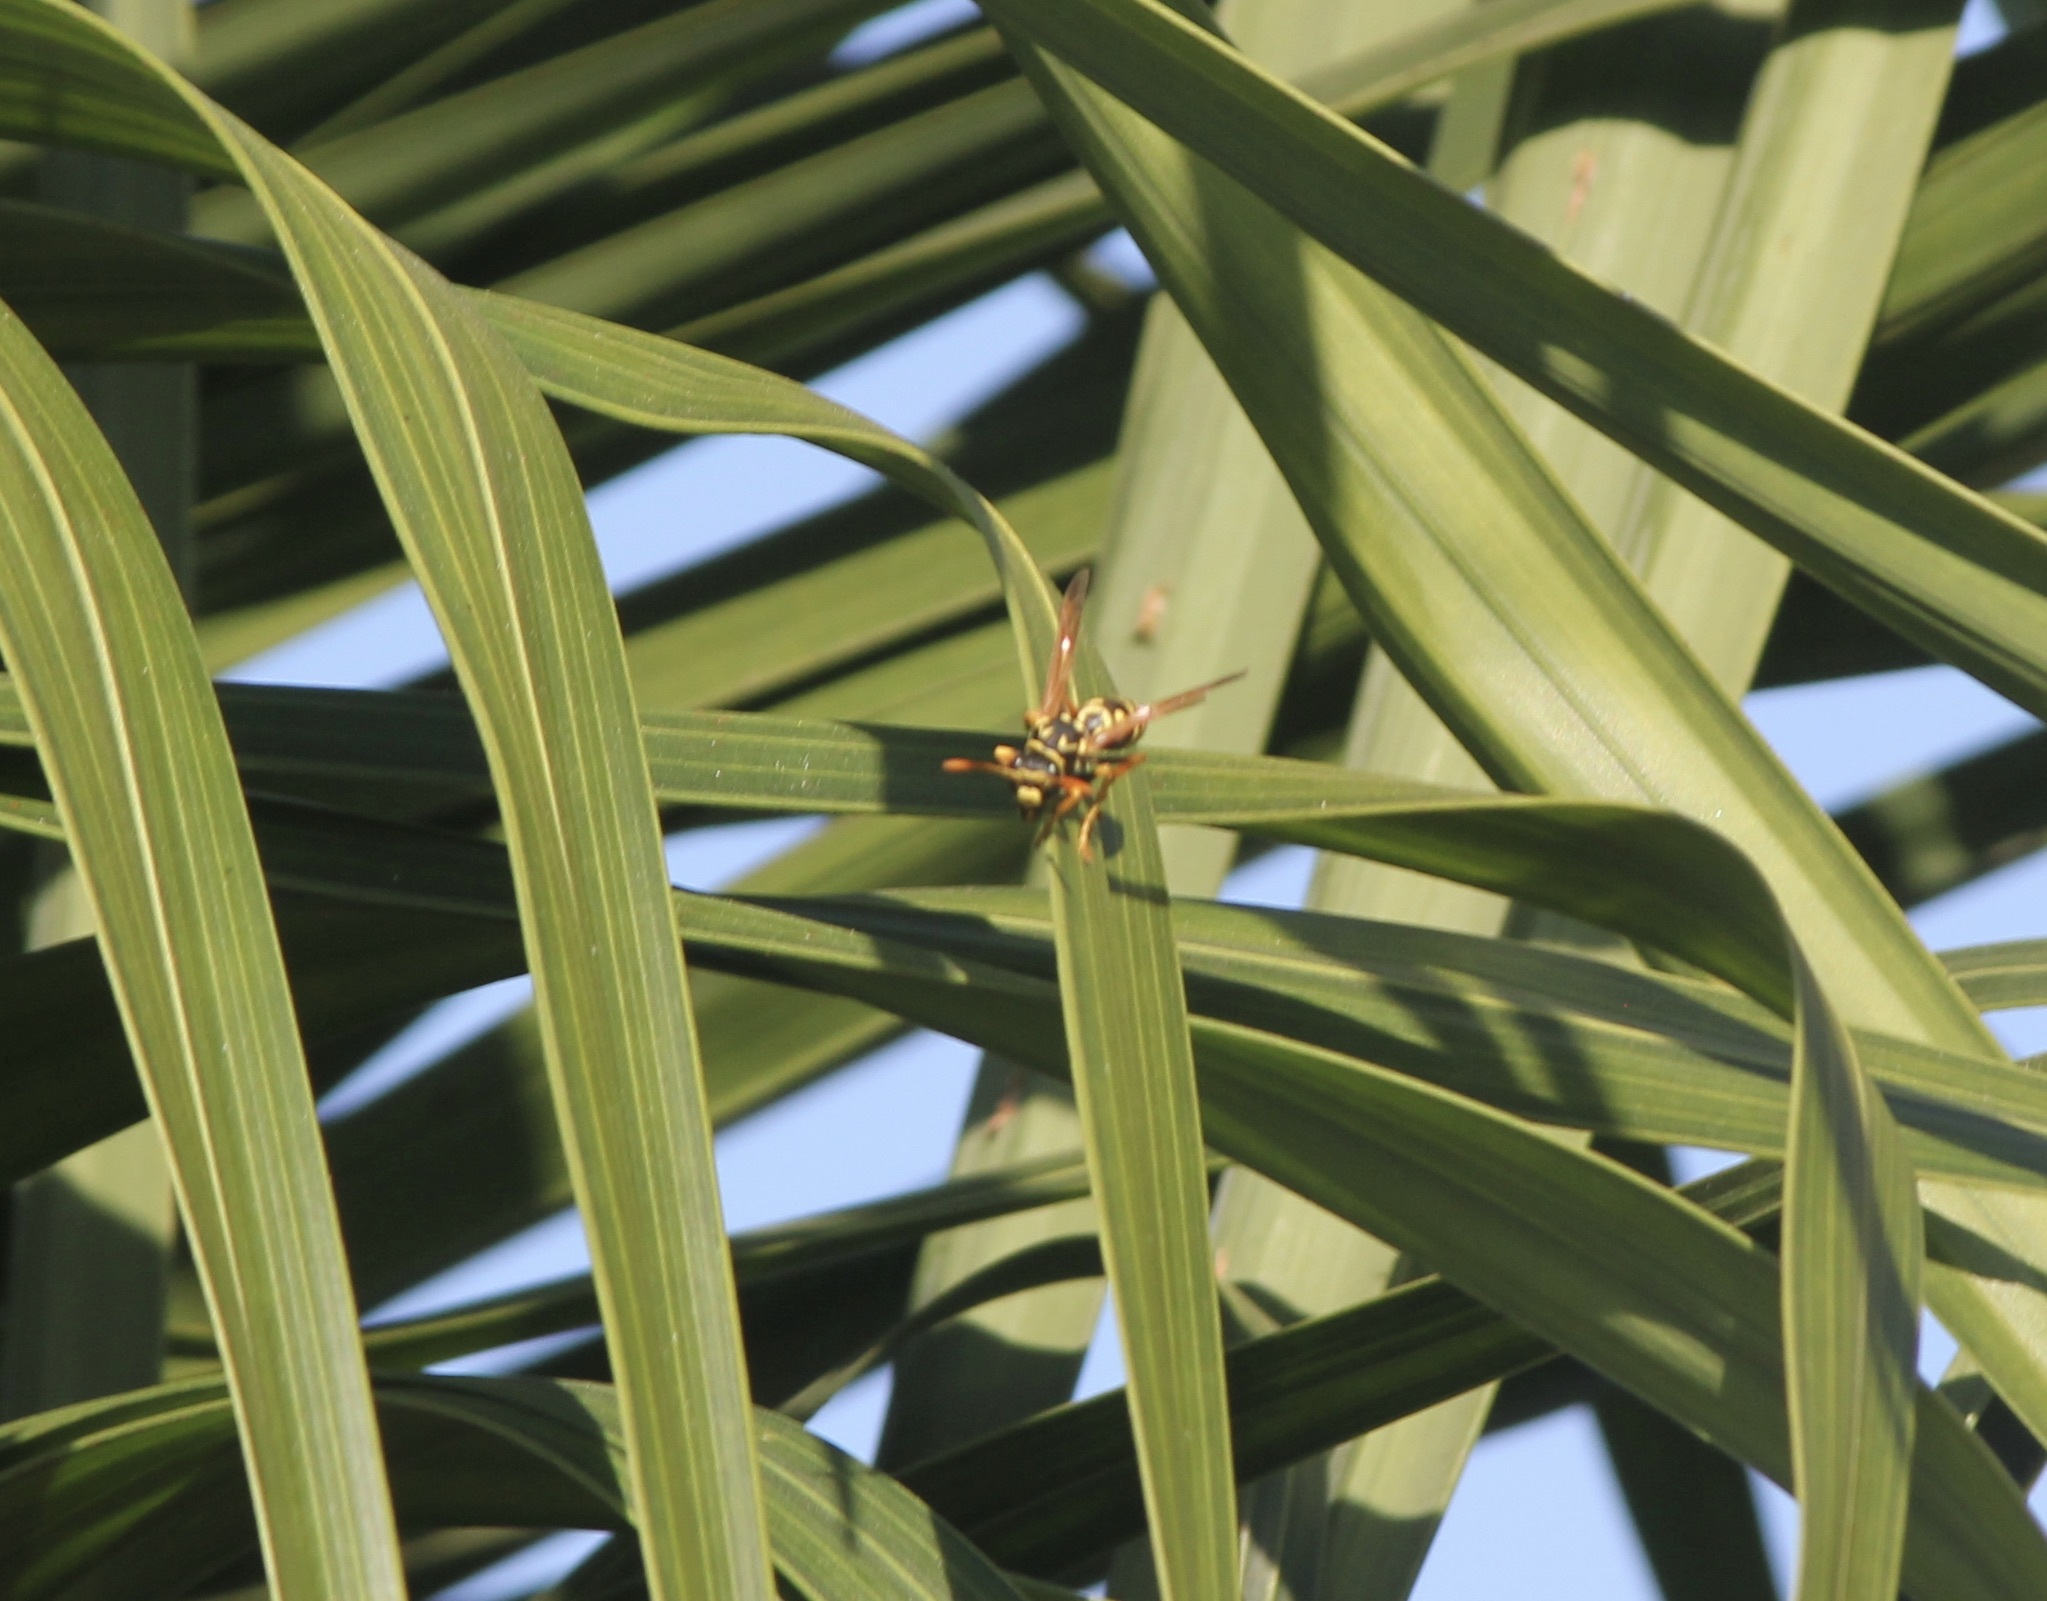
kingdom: Animalia
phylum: Arthropoda
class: Insecta
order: Hymenoptera
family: Eumenidae
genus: Polistes
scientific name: Polistes dominula
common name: Paper wasp
